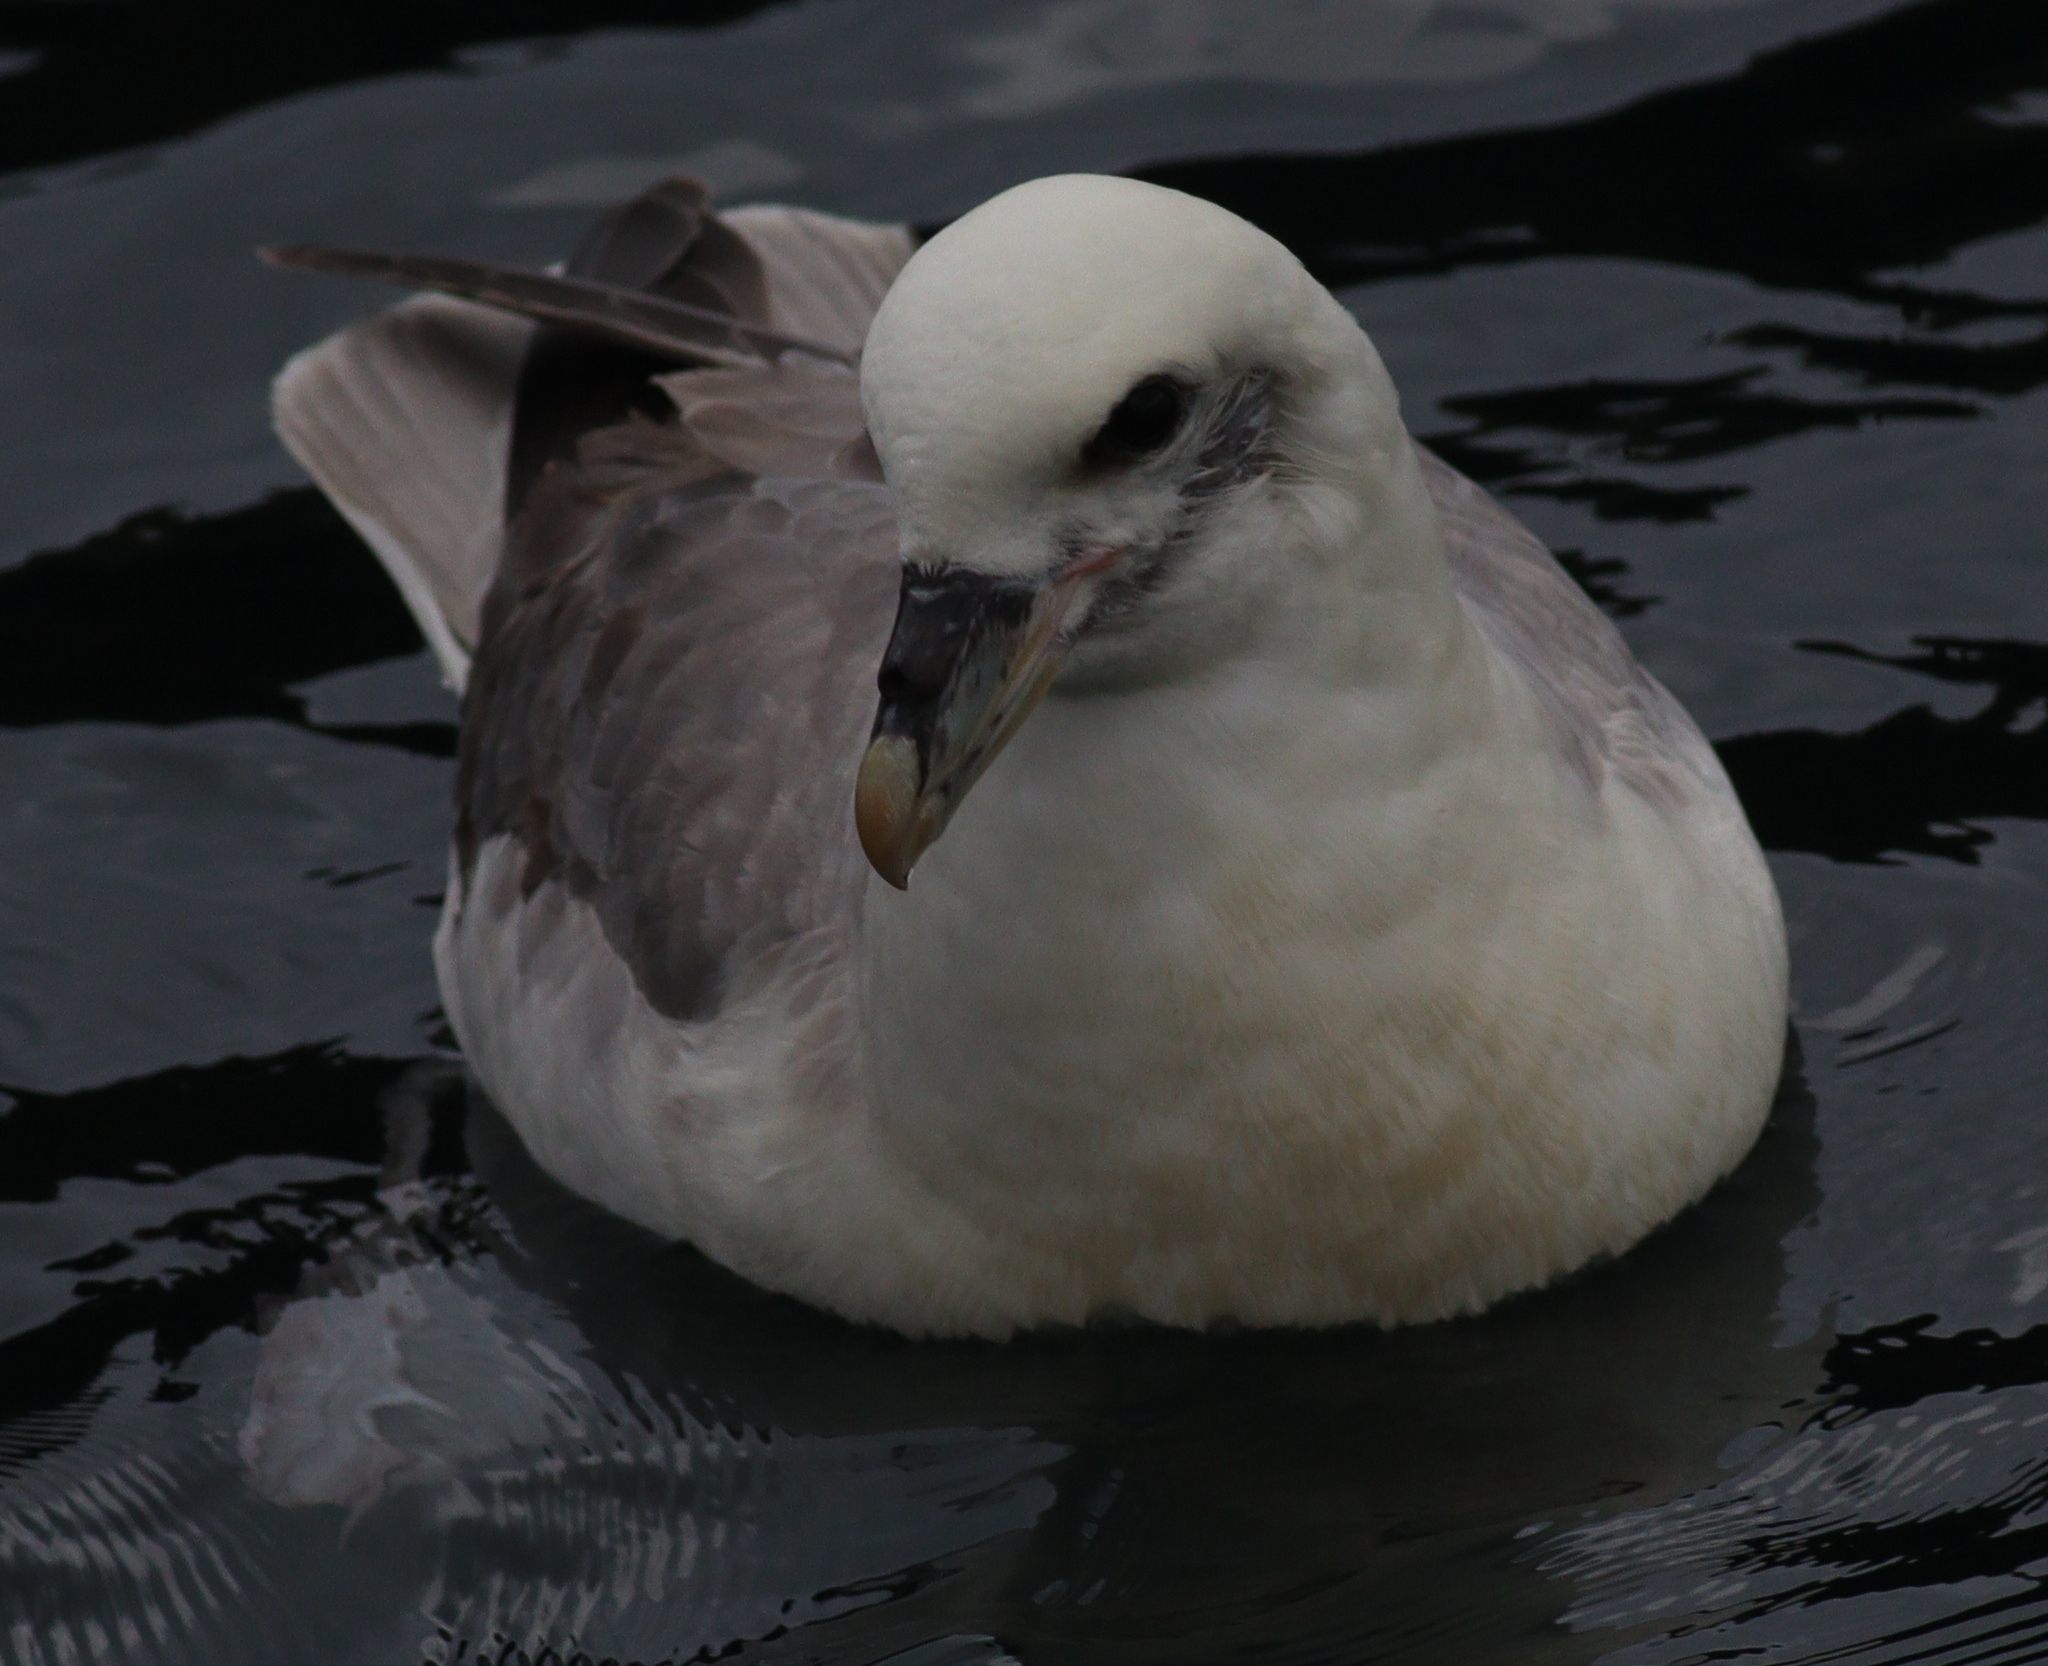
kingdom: Animalia
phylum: Chordata
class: Aves
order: Procellariiformes
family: Procellariidae
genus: Fulmarus
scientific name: Fulmarus glacialis
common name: Northern fulmar
